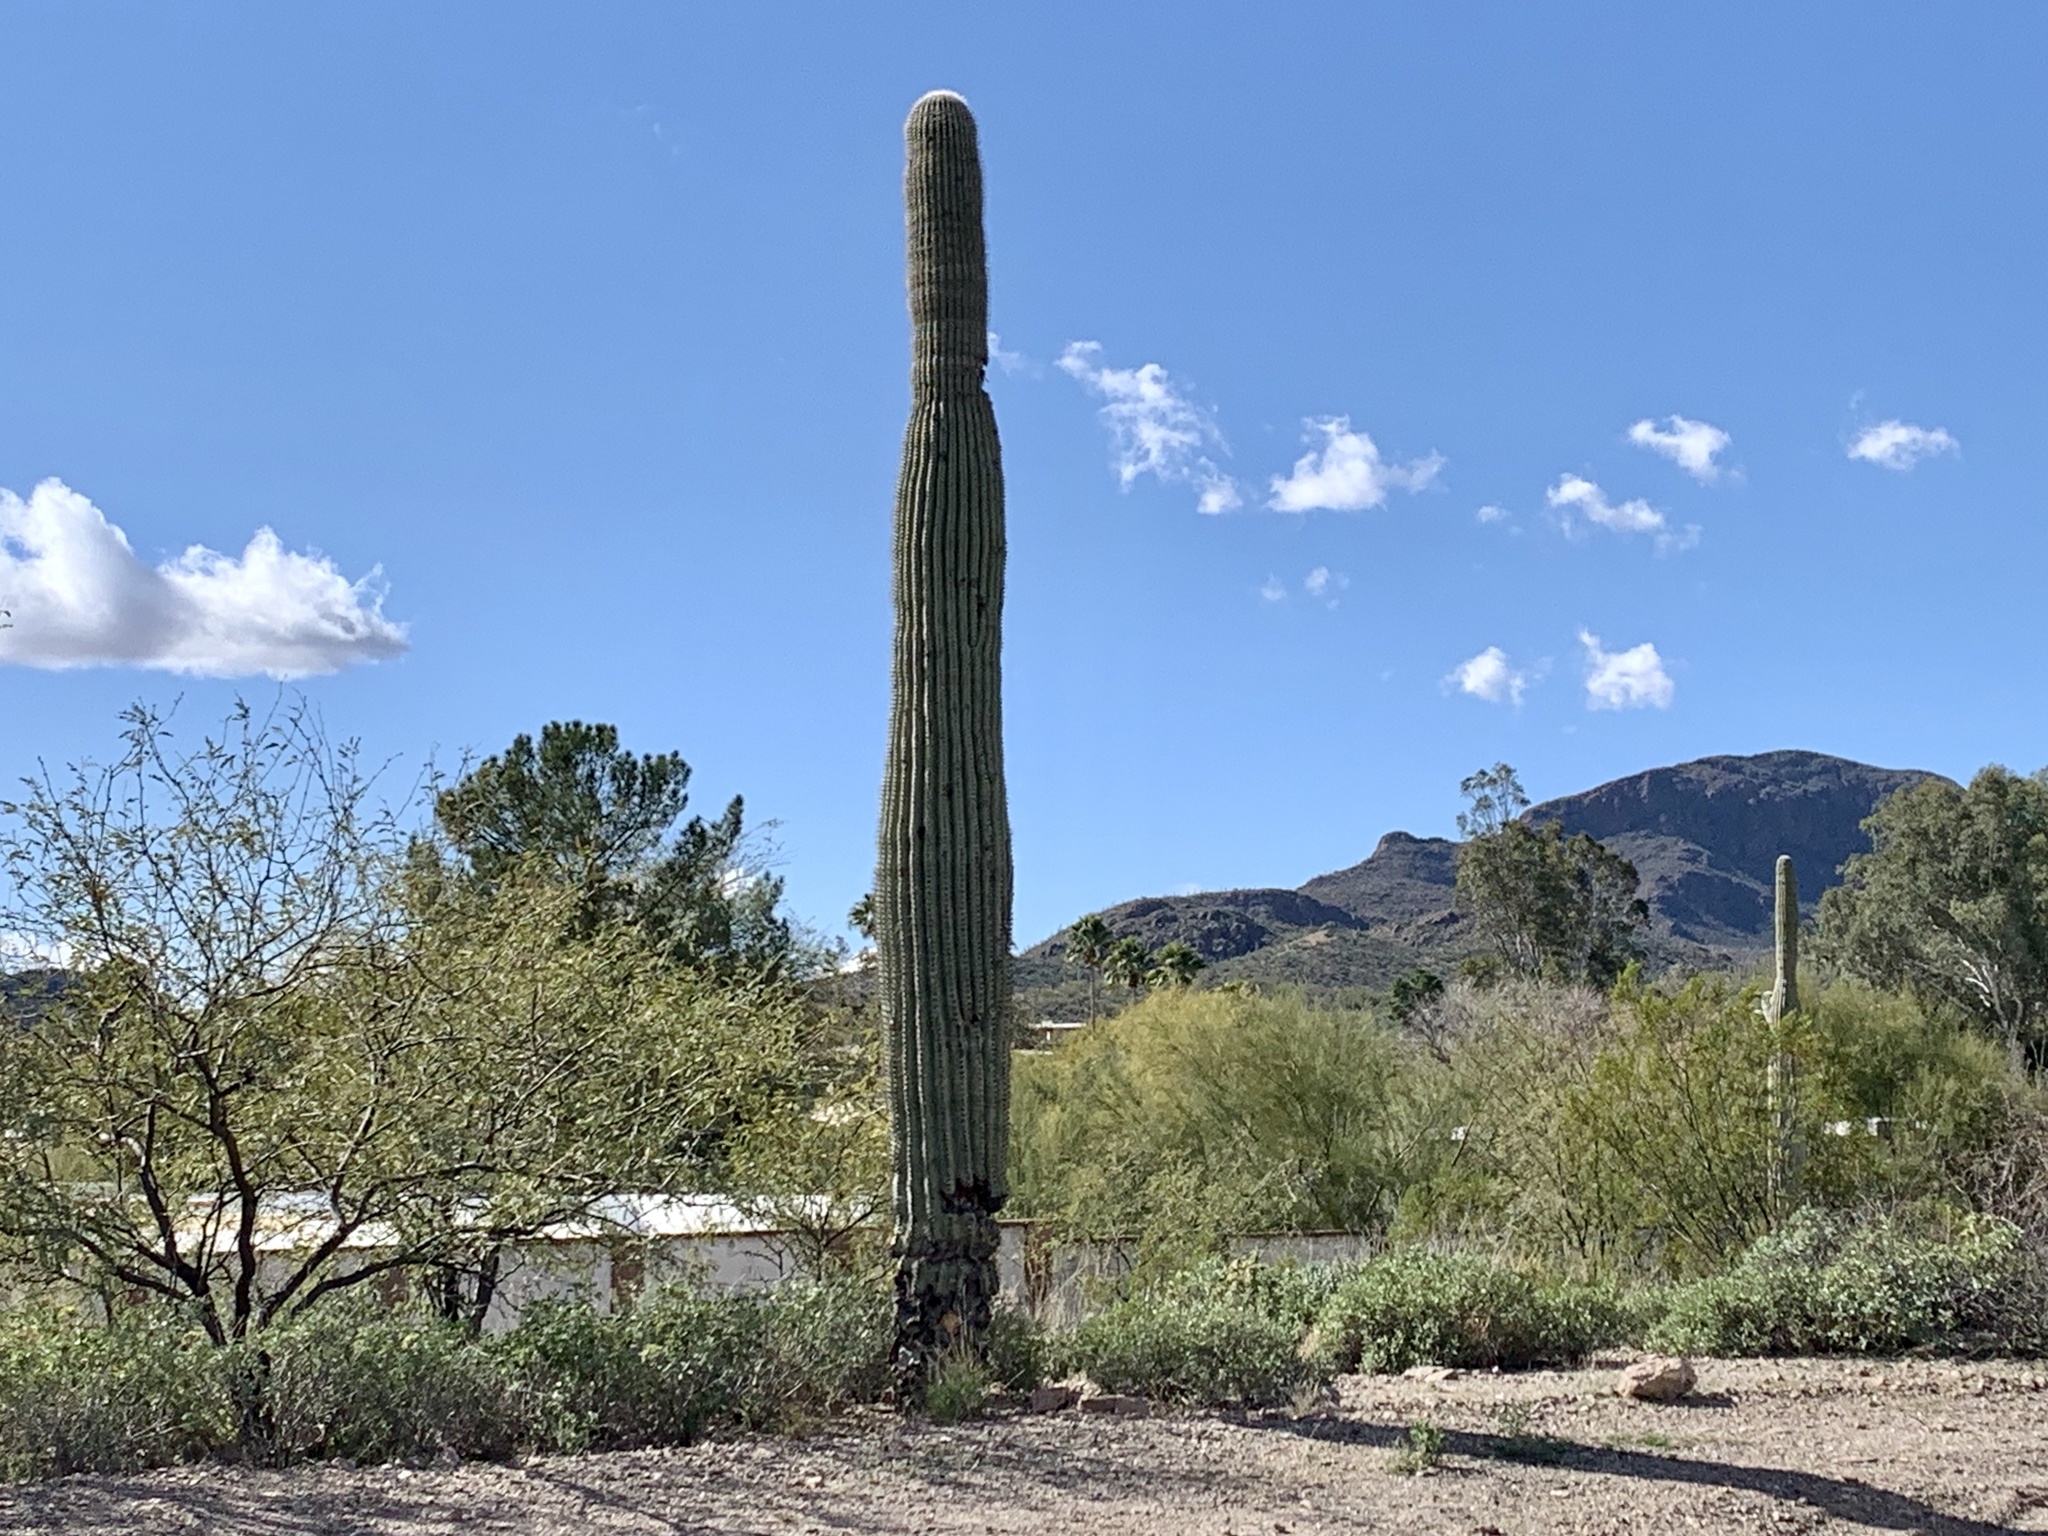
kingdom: Plantae
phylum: Tracheophyta
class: Magnoliopsida
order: Caryophyllales
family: Cactaceae
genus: Carnegiea
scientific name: Carnegiea gigantea
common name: Saguaro
